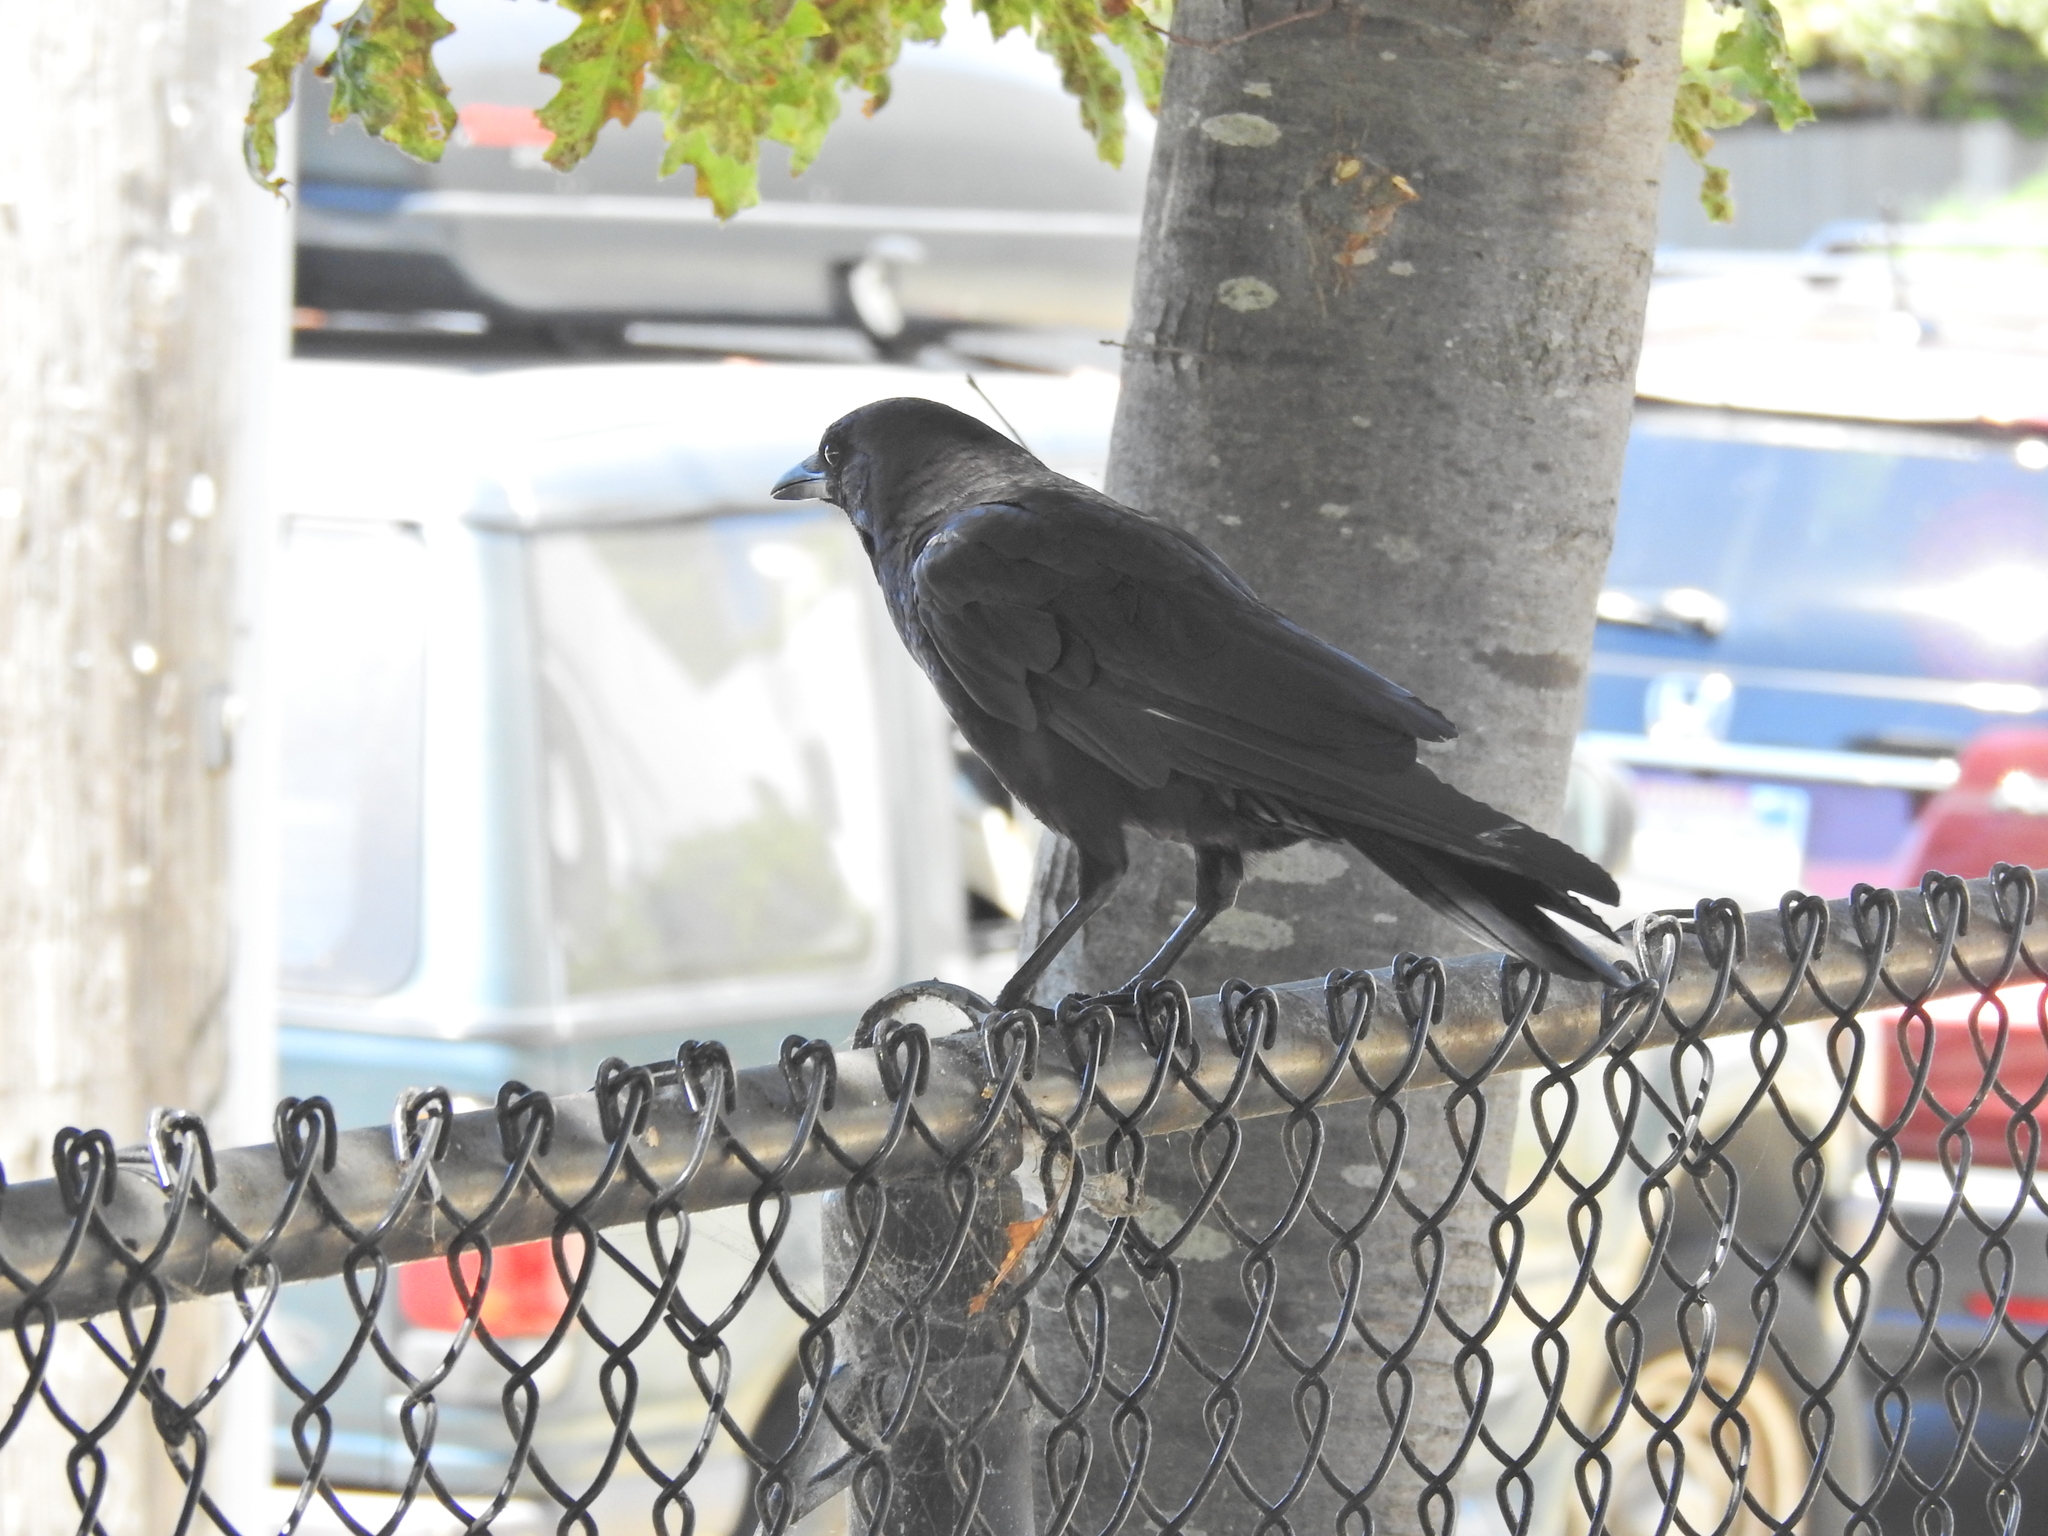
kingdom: Animalia
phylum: Chordata
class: Aves
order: Passeriformes
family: Corvidae
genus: Corvus
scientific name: Corvus brachyrhynchos
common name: American crow
